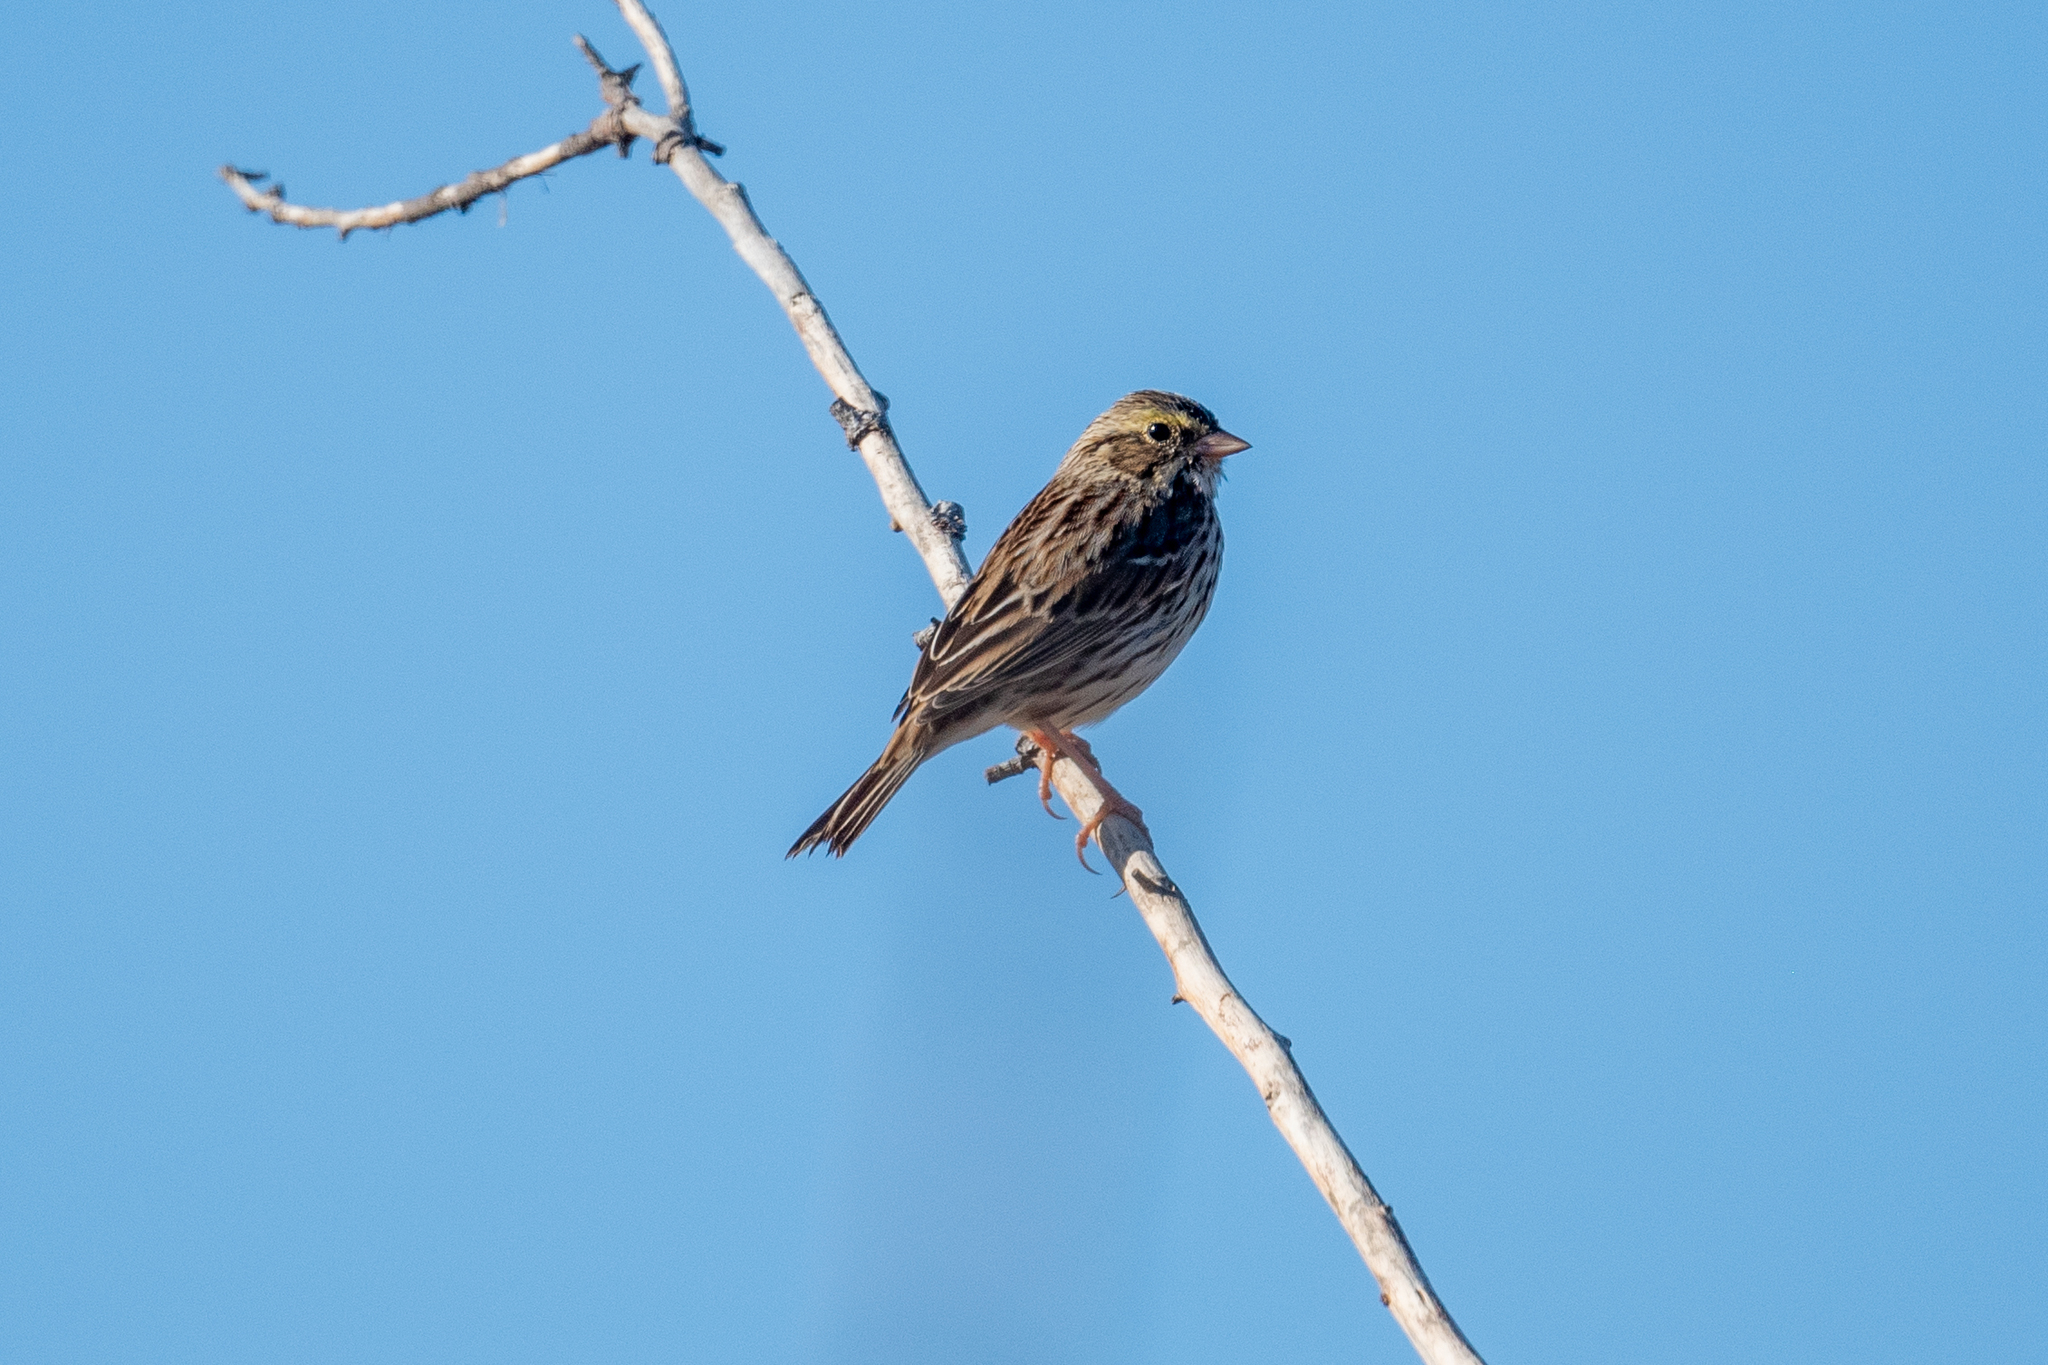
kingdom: Animalia
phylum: Chordata
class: Aves
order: Passeriformes
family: Passerellidae
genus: Passerculus
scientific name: Passerculus sandwichensis
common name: Savannah sparrow
